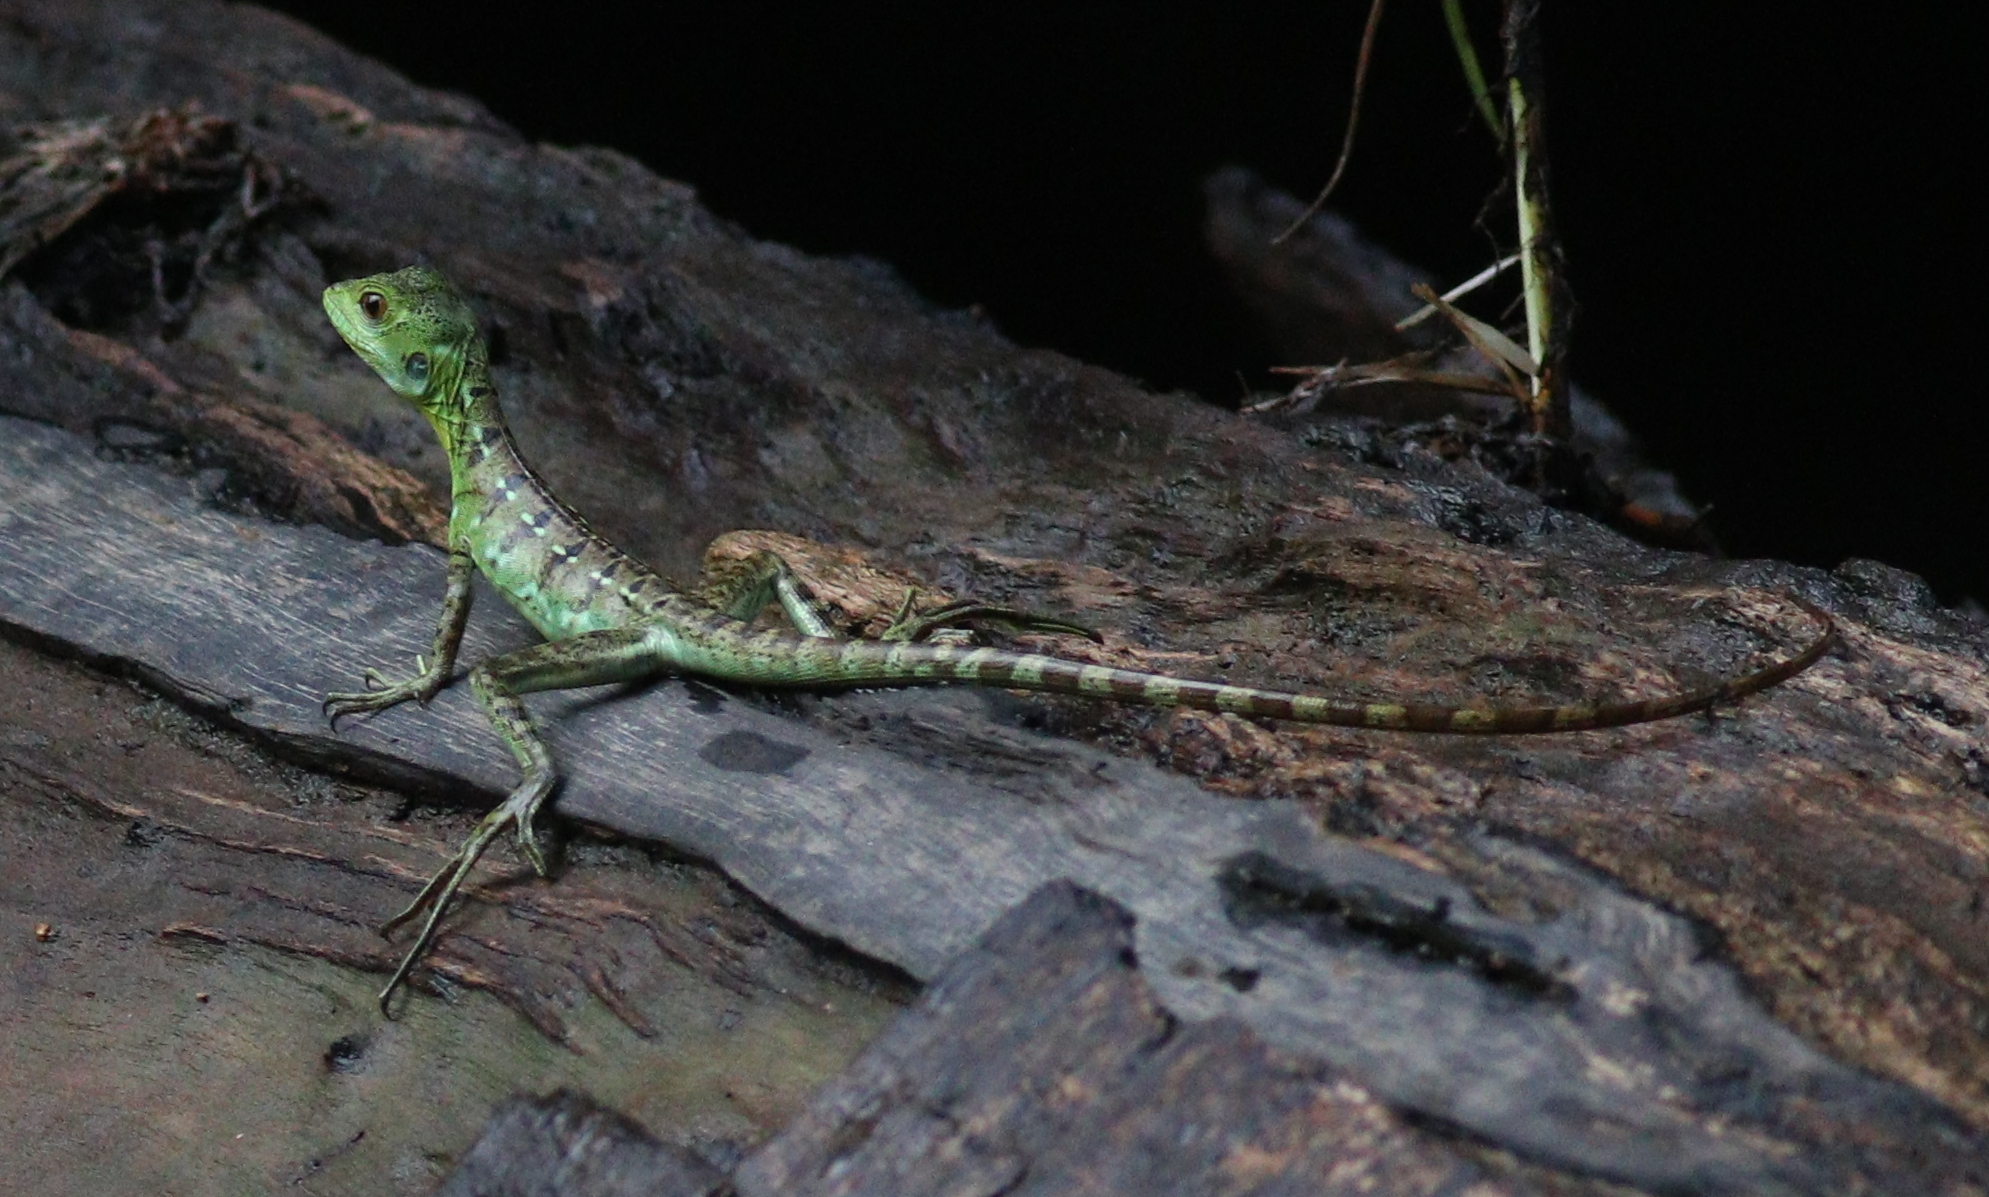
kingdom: Animalia
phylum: Chordata
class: Squamata
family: Corytophanidae
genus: Basiliscus
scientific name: Basiliscus plumifrons
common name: Green basilisk
